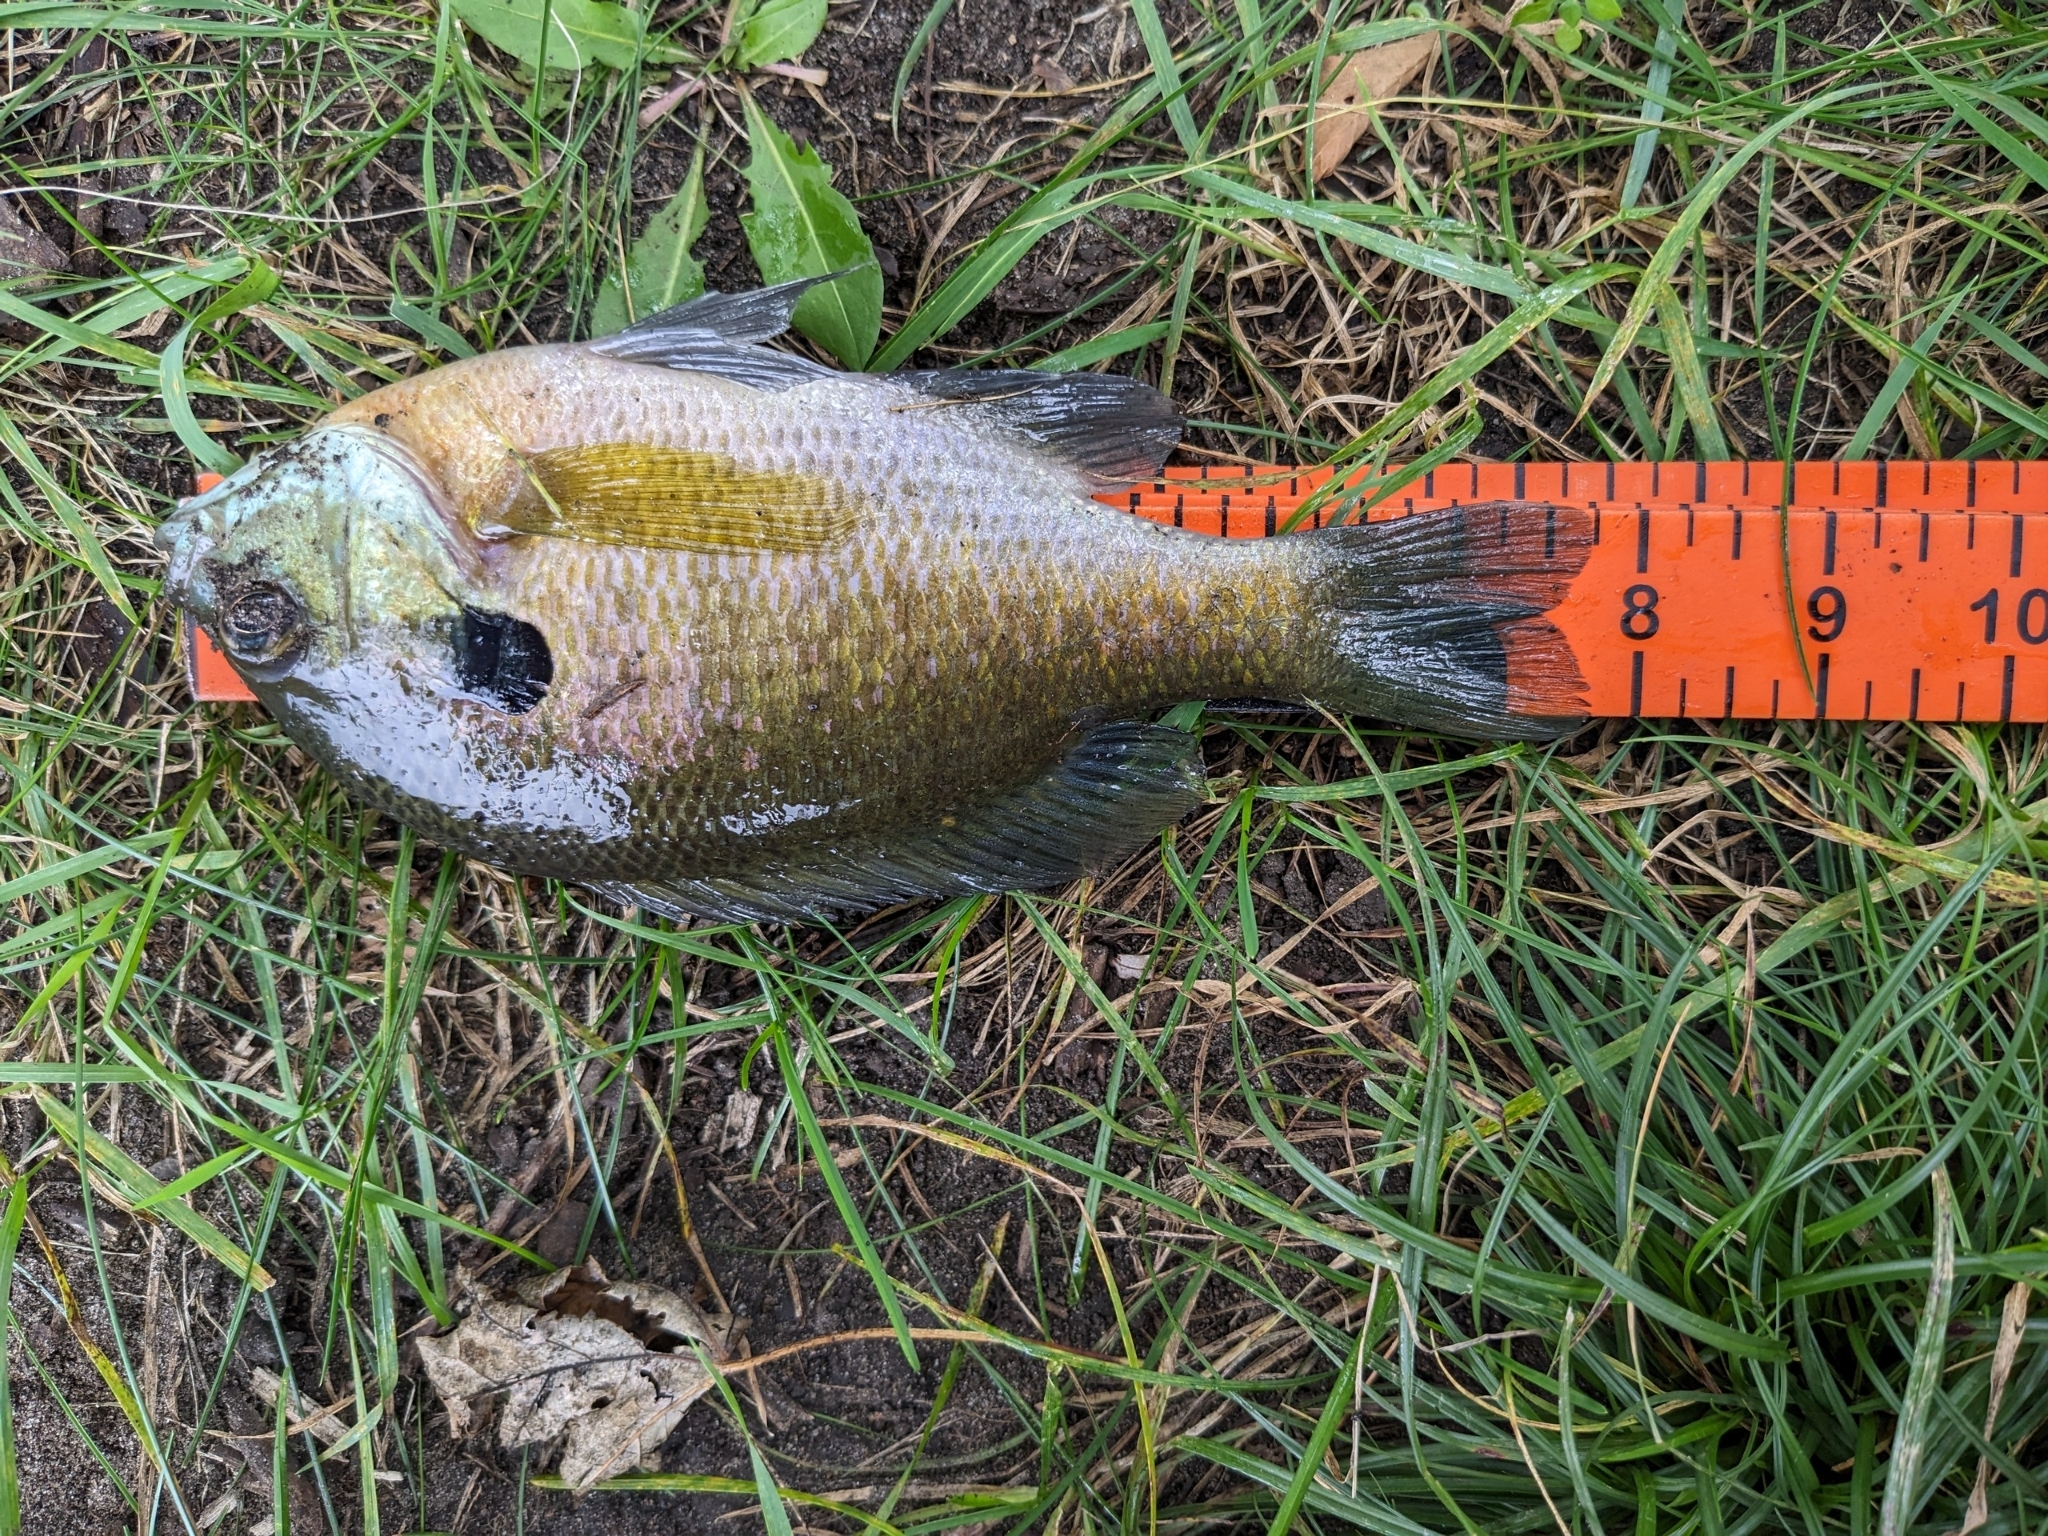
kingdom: Animalia
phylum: Chordata
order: Perciformes
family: Centrarchidae
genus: Lepomis
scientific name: Lepomis macrochirus
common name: Bluegill
